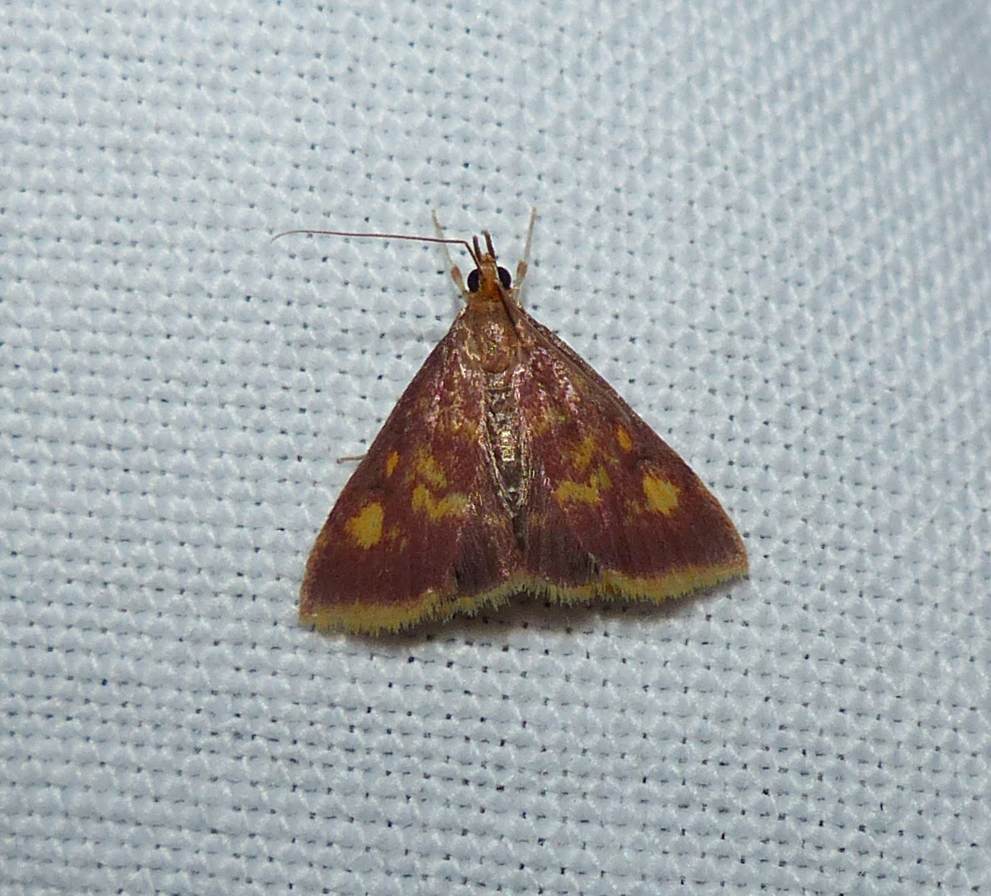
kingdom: Animalia
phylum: Arthropoda
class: Insecta
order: Lepidoptera
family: Crambidae
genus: Pyrausta
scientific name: Pyrausta acrionalis
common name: Mint-loving pyrausta moth
